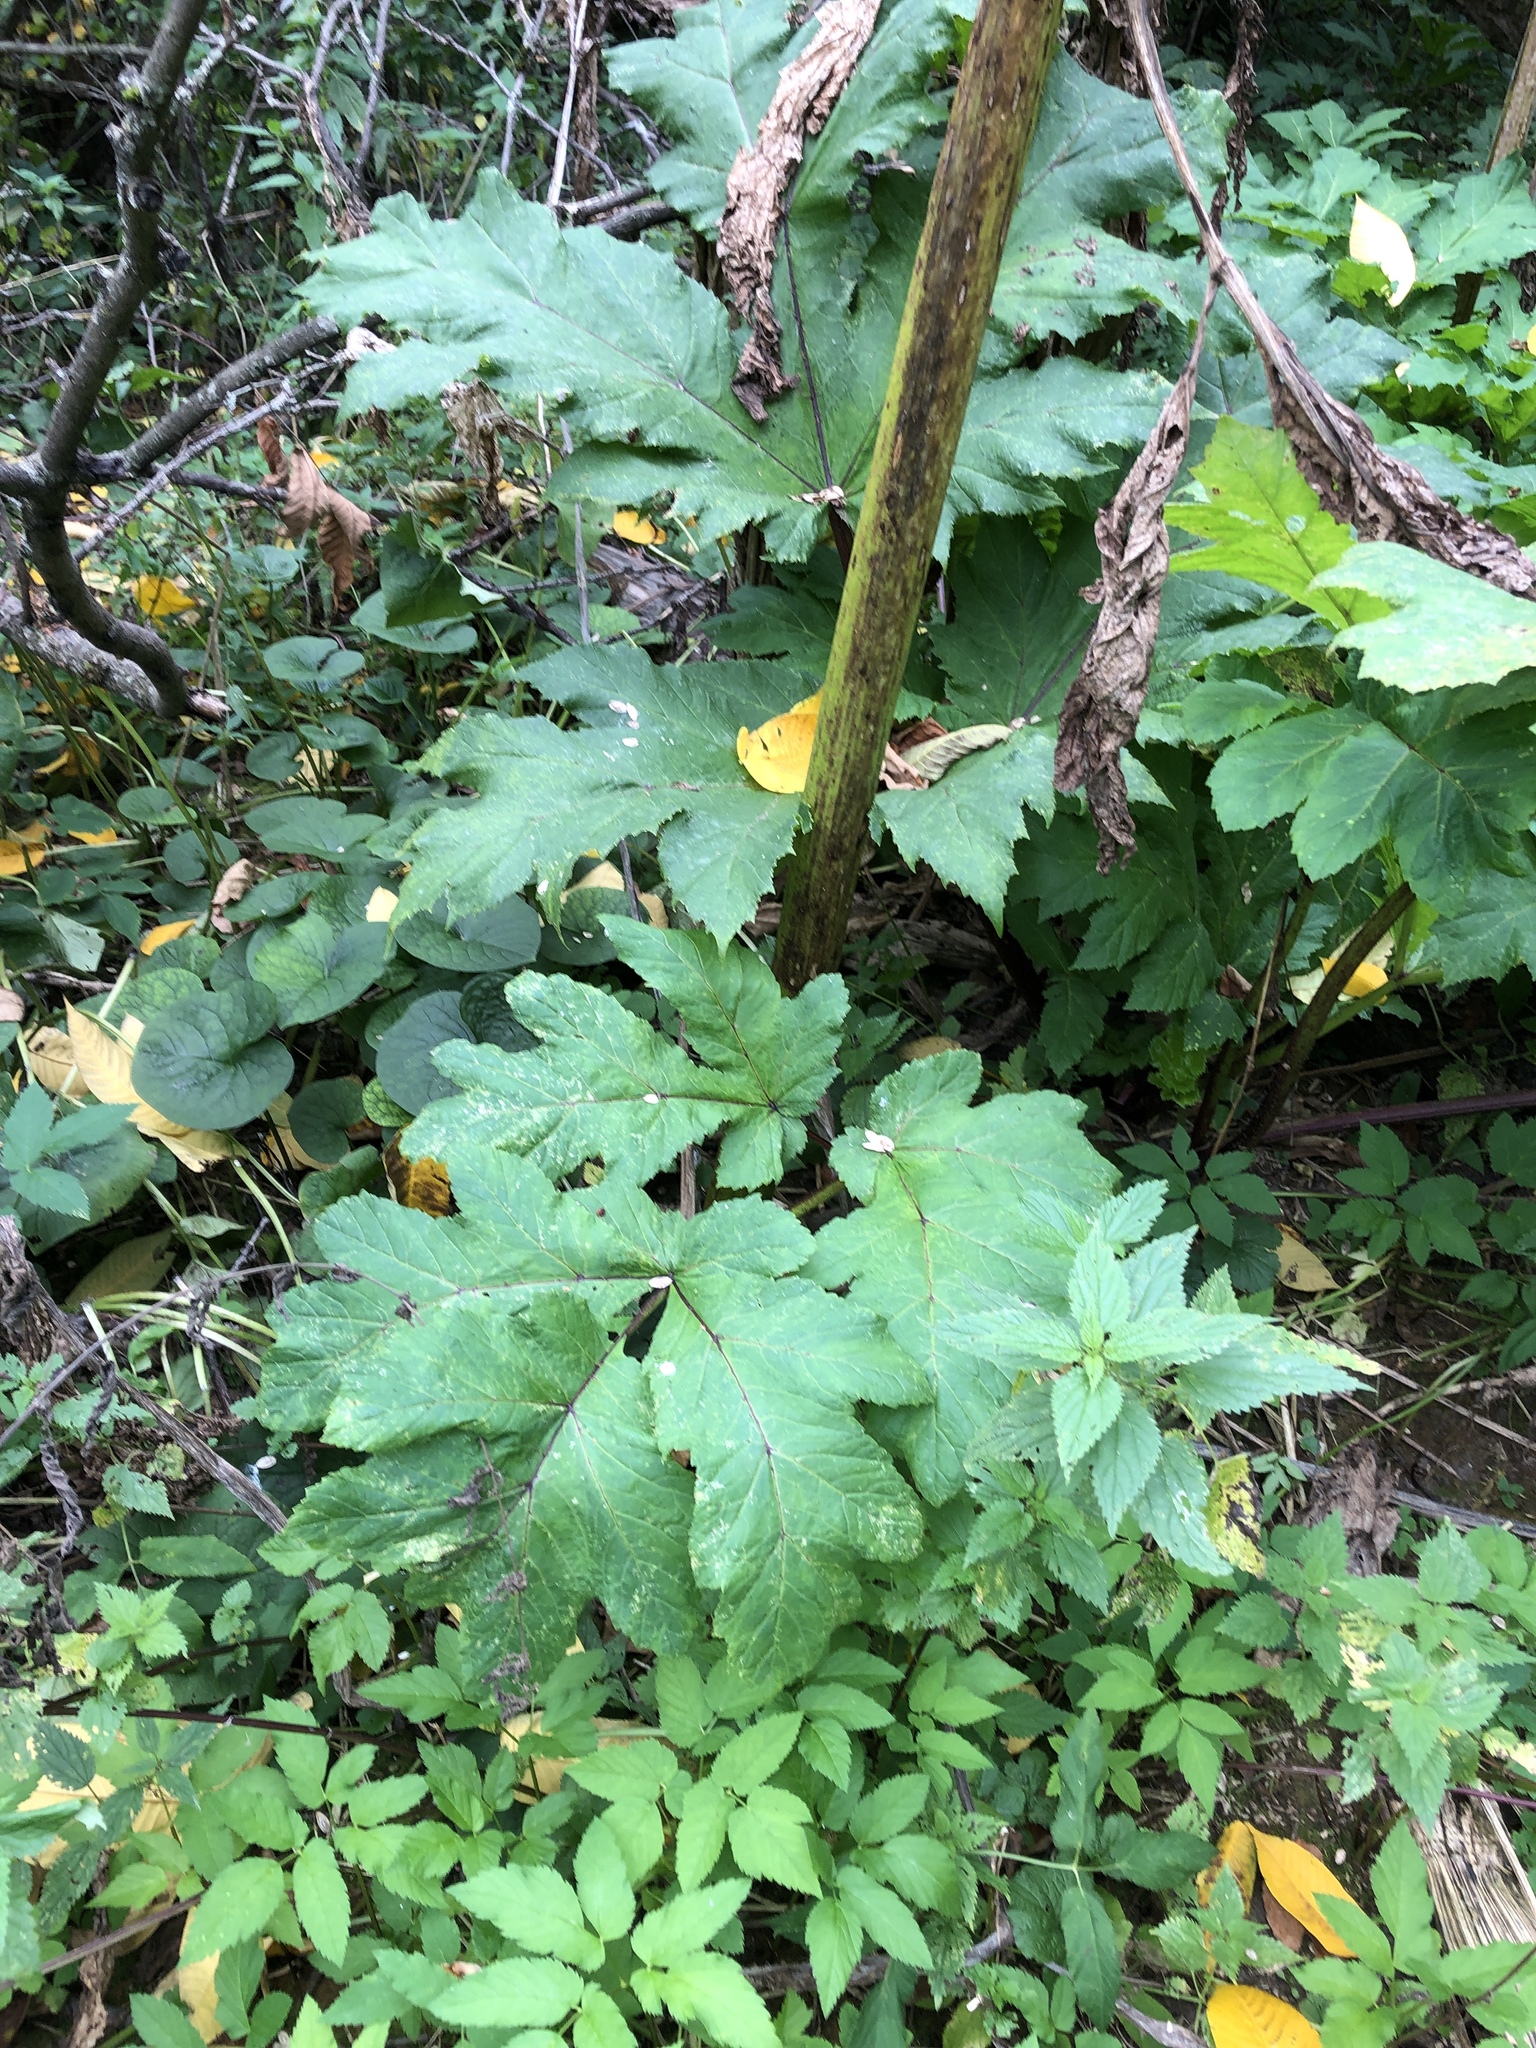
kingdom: Plantae
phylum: Tracheophyta
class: Magnoliopsida
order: Apiales
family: Apiaceae
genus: Heracleum
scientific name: Heracleum sosnowskyi
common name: Sosnowsky's hogweed
